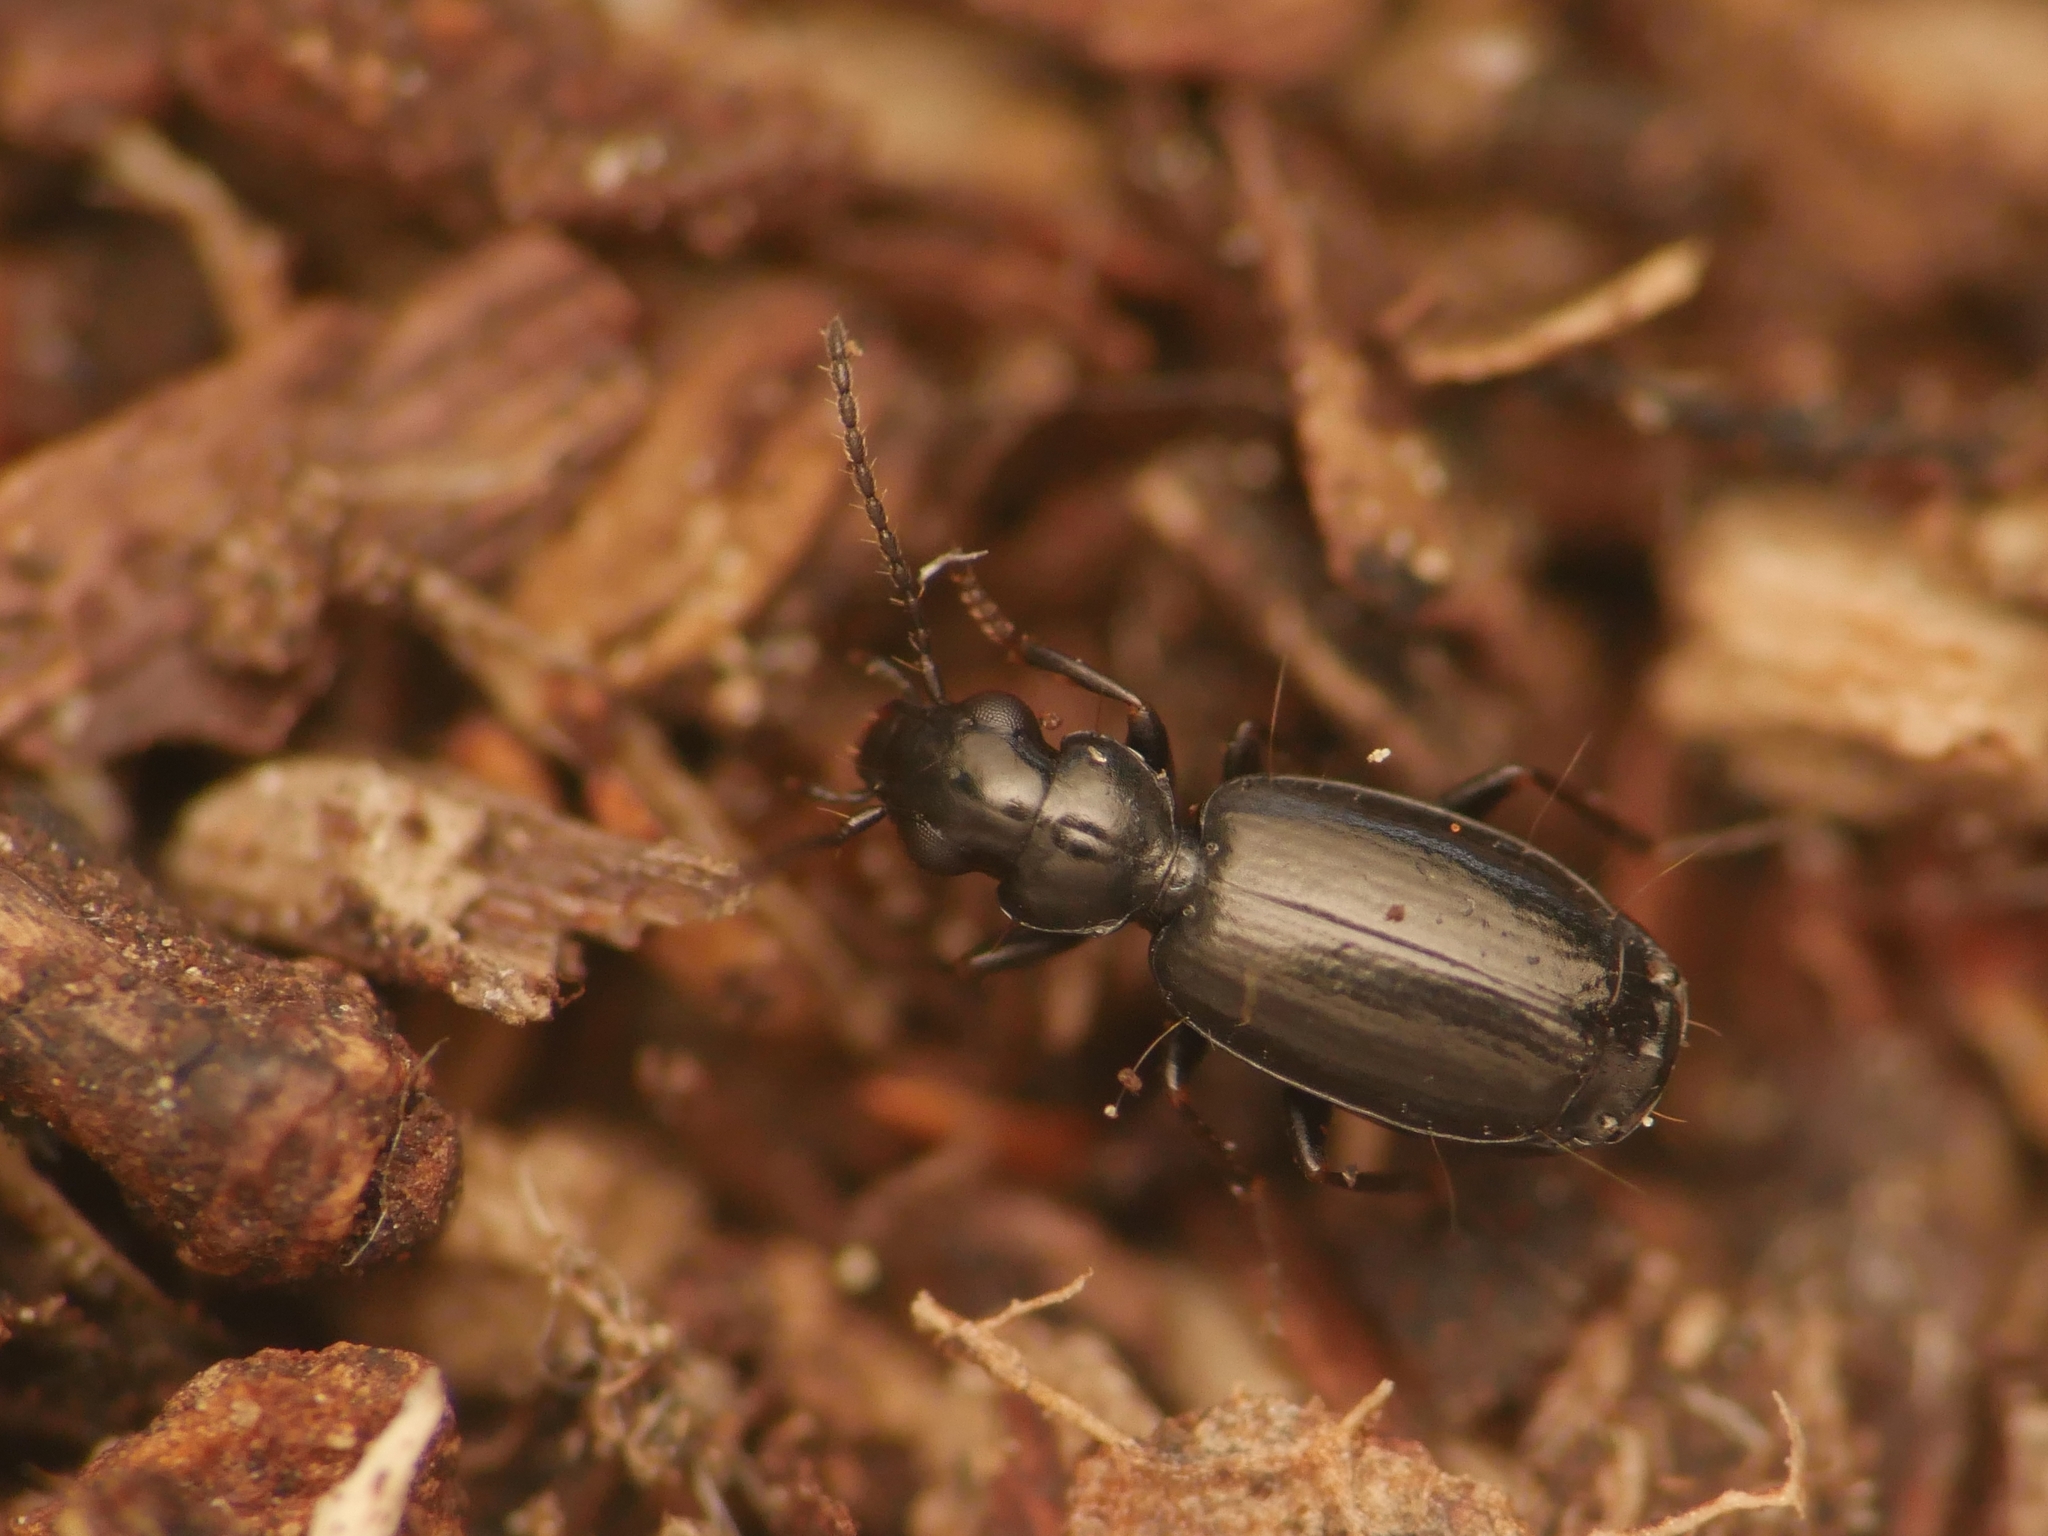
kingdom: Animalia
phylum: Arthropoda
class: Insecta
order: Coleoptera
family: Carabidae
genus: Syntomus
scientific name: Syntomus truncatellus
